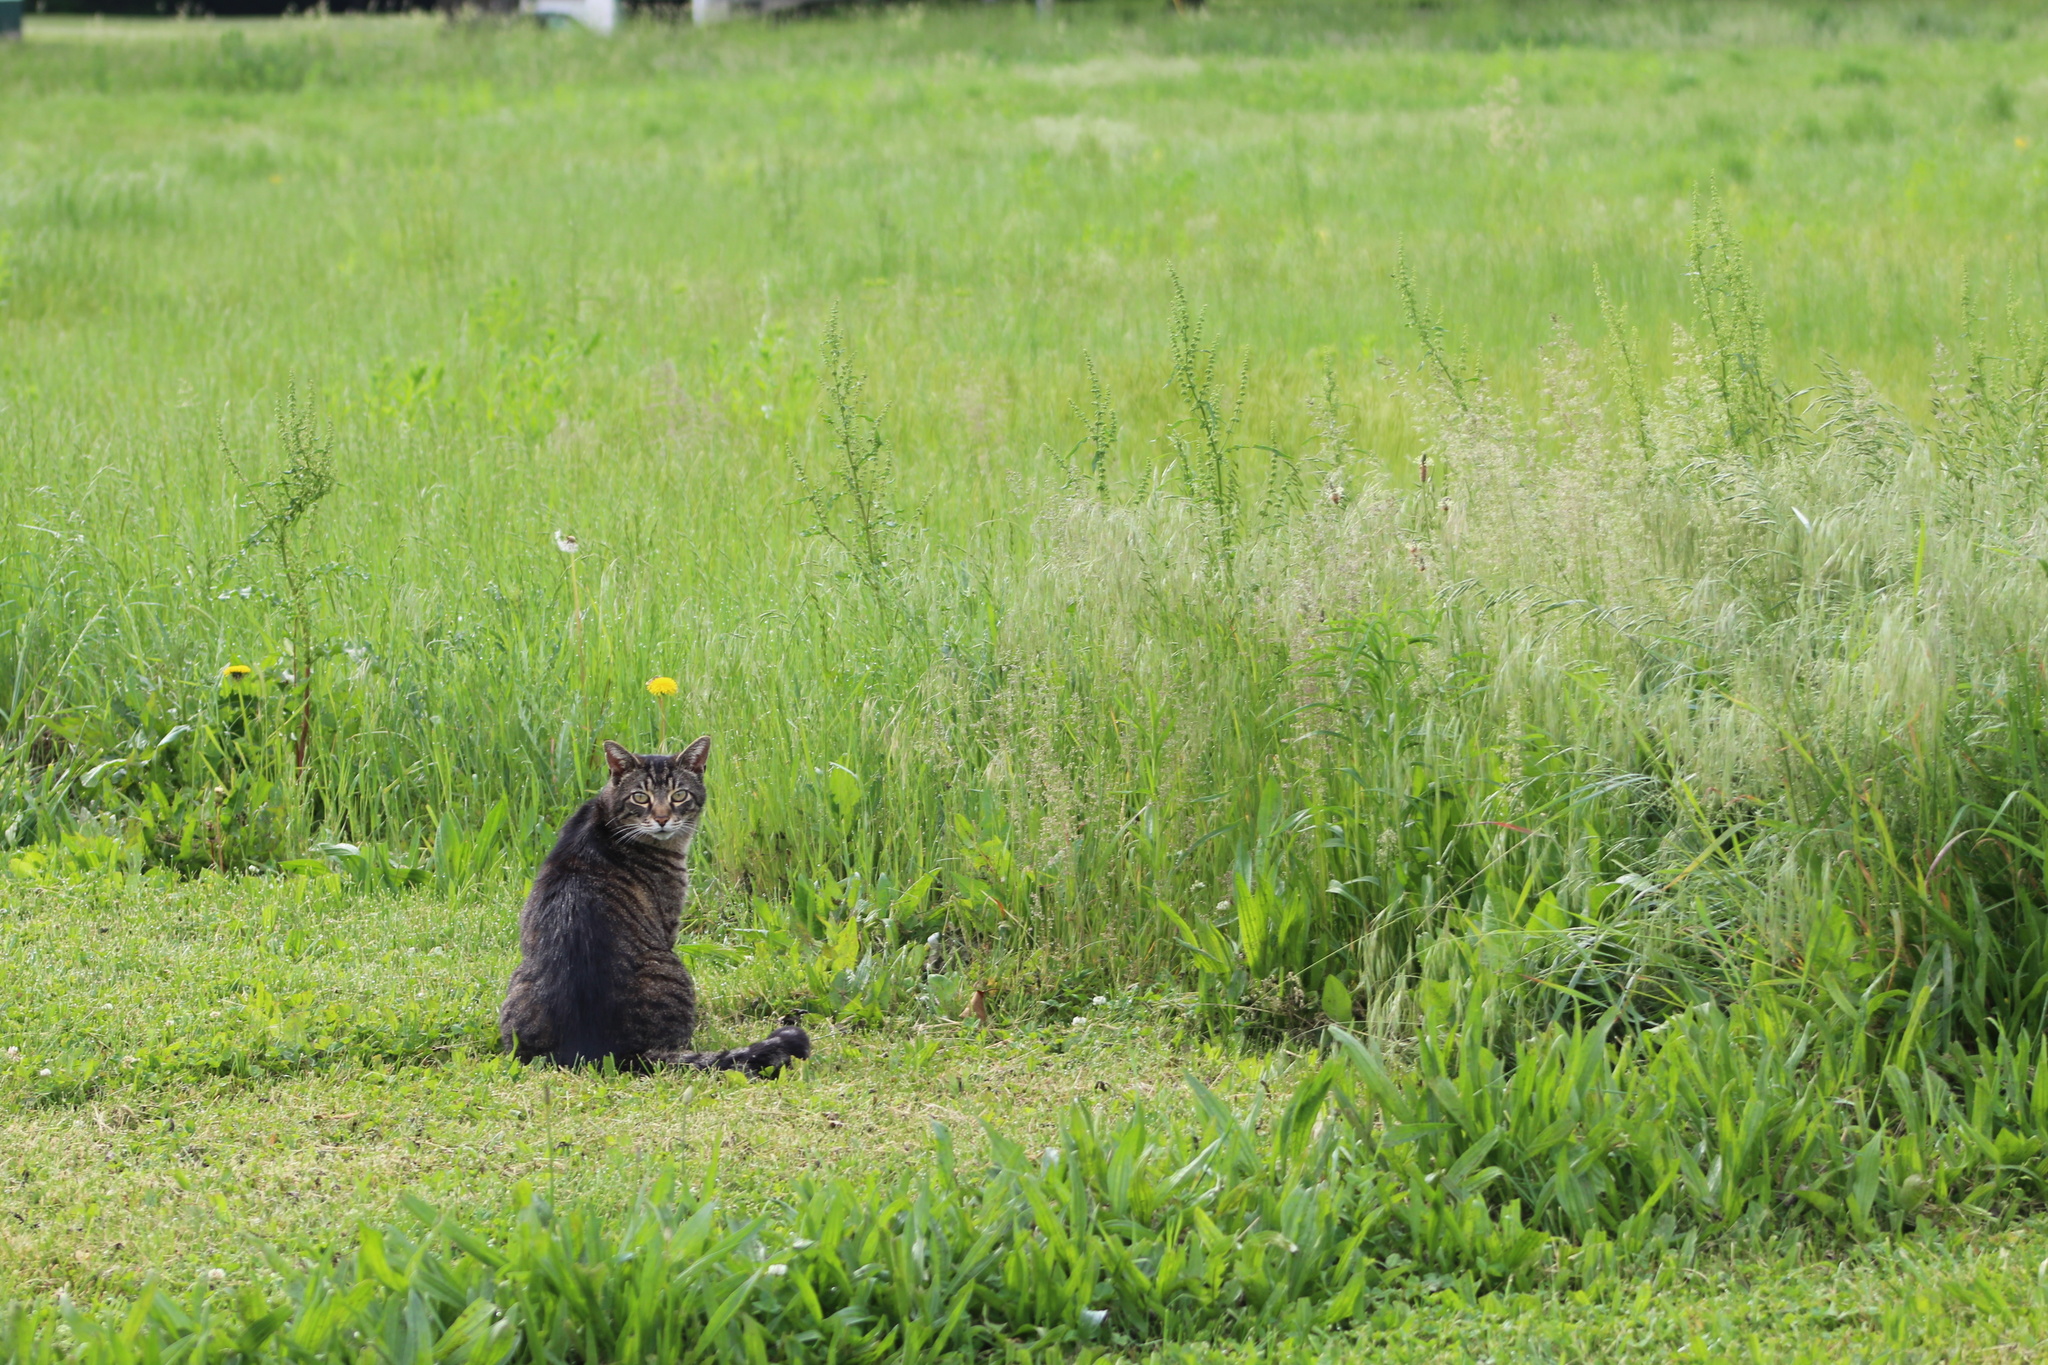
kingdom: Animalia
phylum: Chordata
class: Mammalia
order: Carnivora
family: Felidae
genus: Felis
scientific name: Felis catus
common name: Domestic cat
